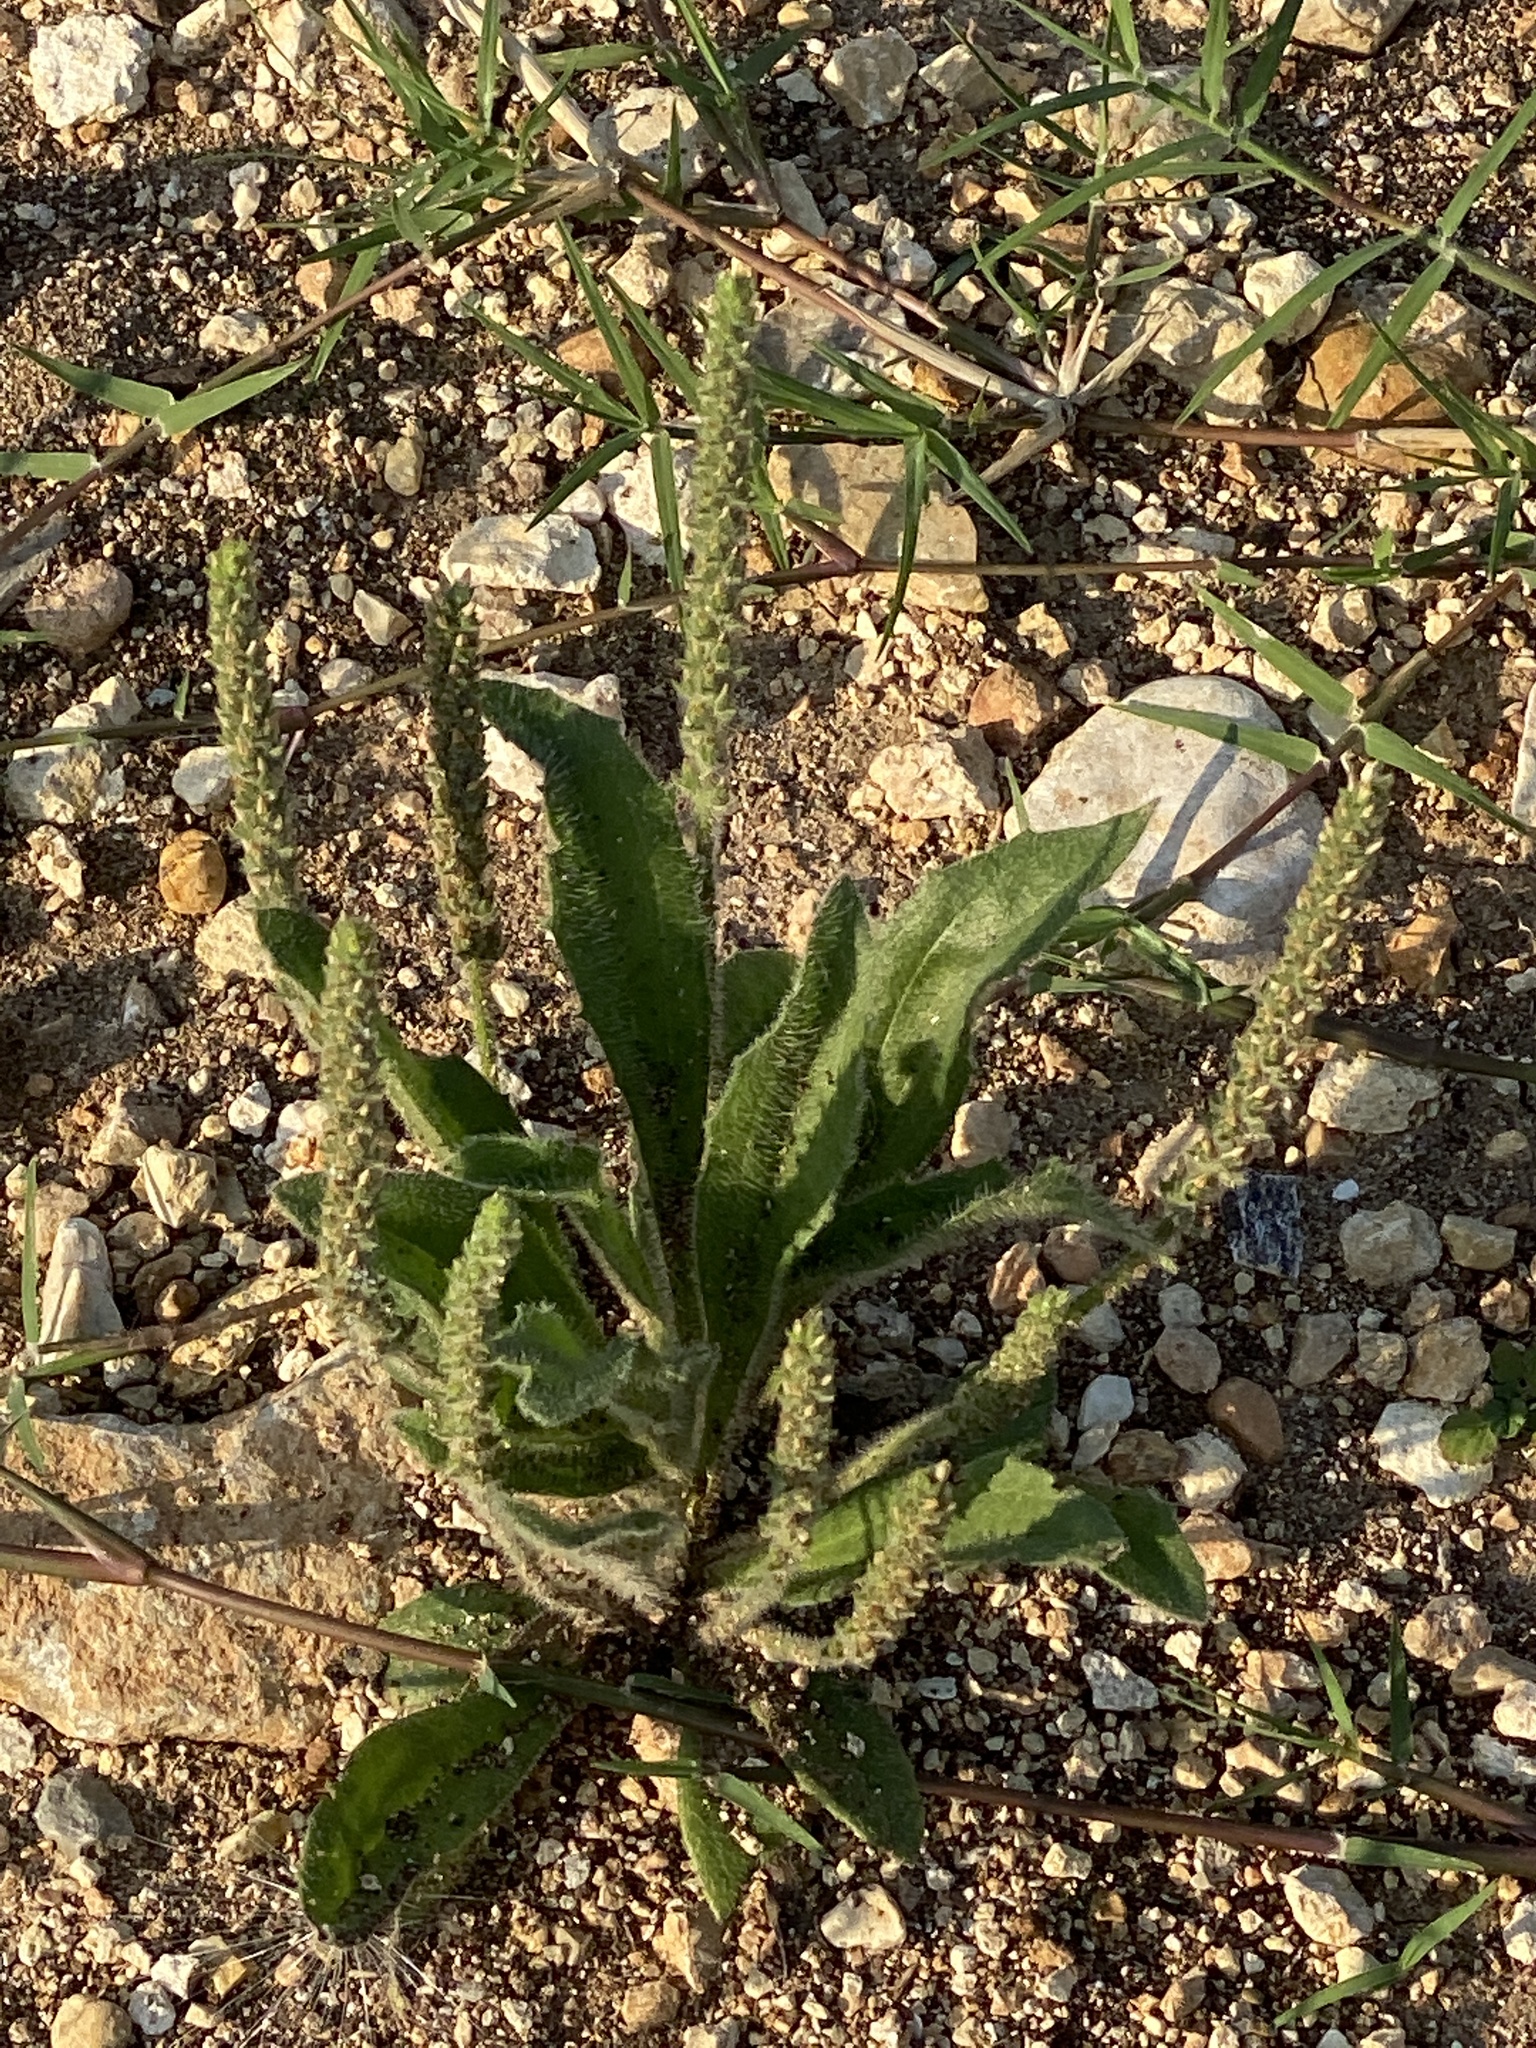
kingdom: Plantae
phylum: Tracheophyta
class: Magnoliopsida
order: Lamiales
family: Plantaginaceae
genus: Plantago
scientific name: Plantago rhodosperma
